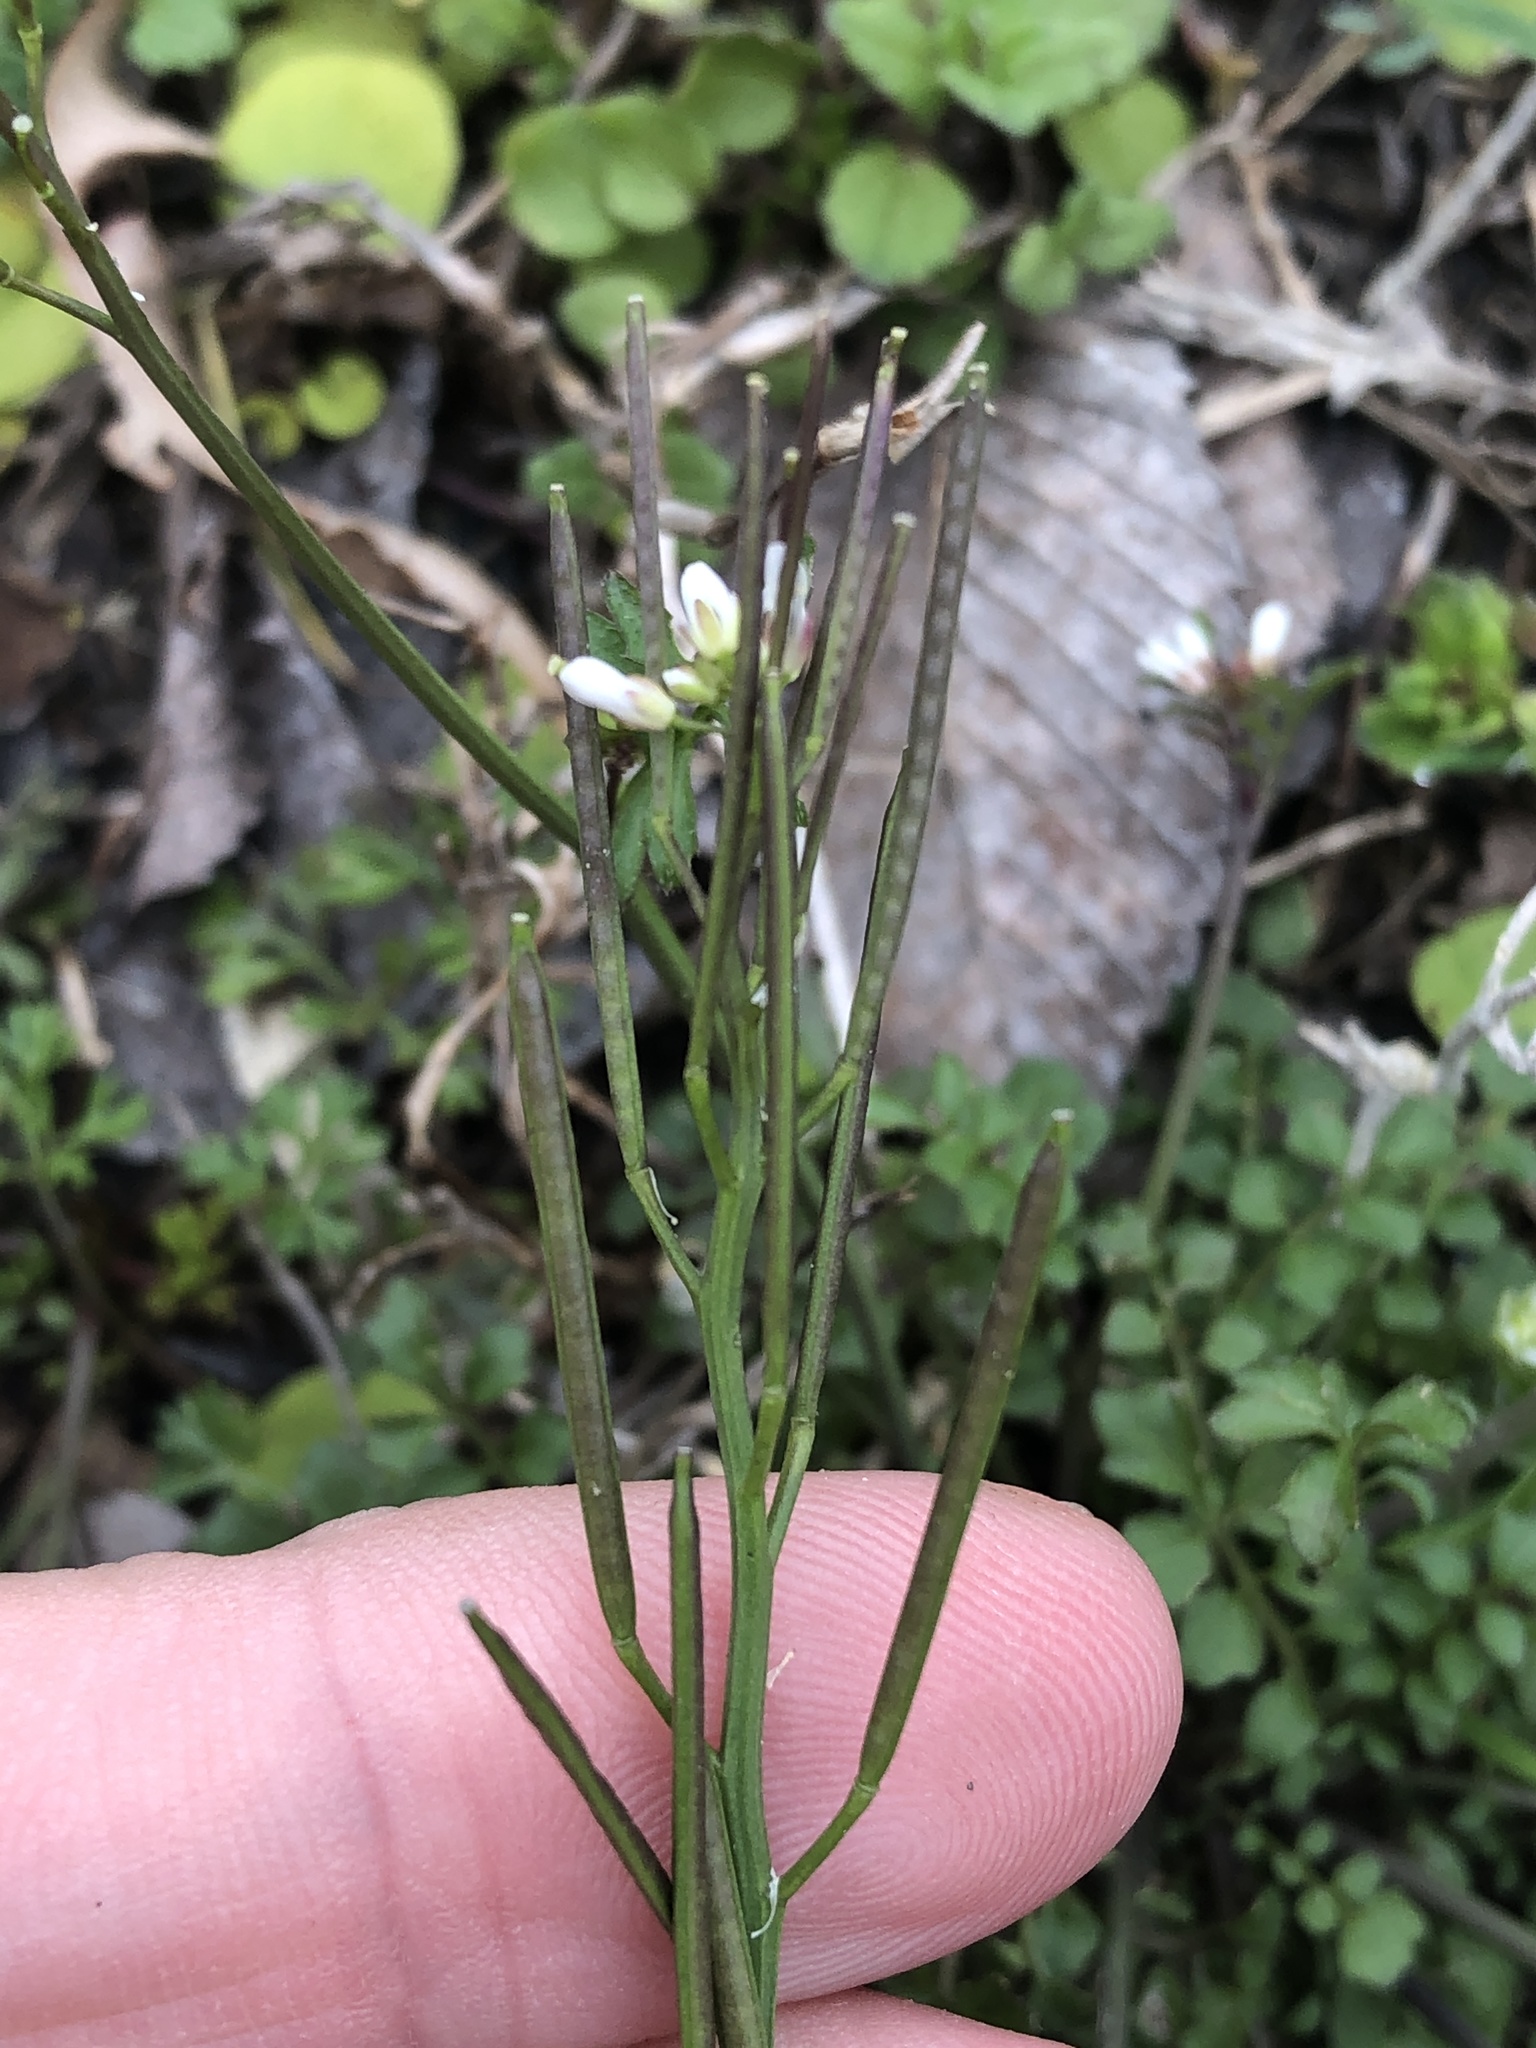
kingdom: Plantae
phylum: Tracheophyta
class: Magnoliopsida
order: Brassicales
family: Brassicaceae
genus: Cardamine
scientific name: Cardamine hirsuta
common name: Hairy bittercress
